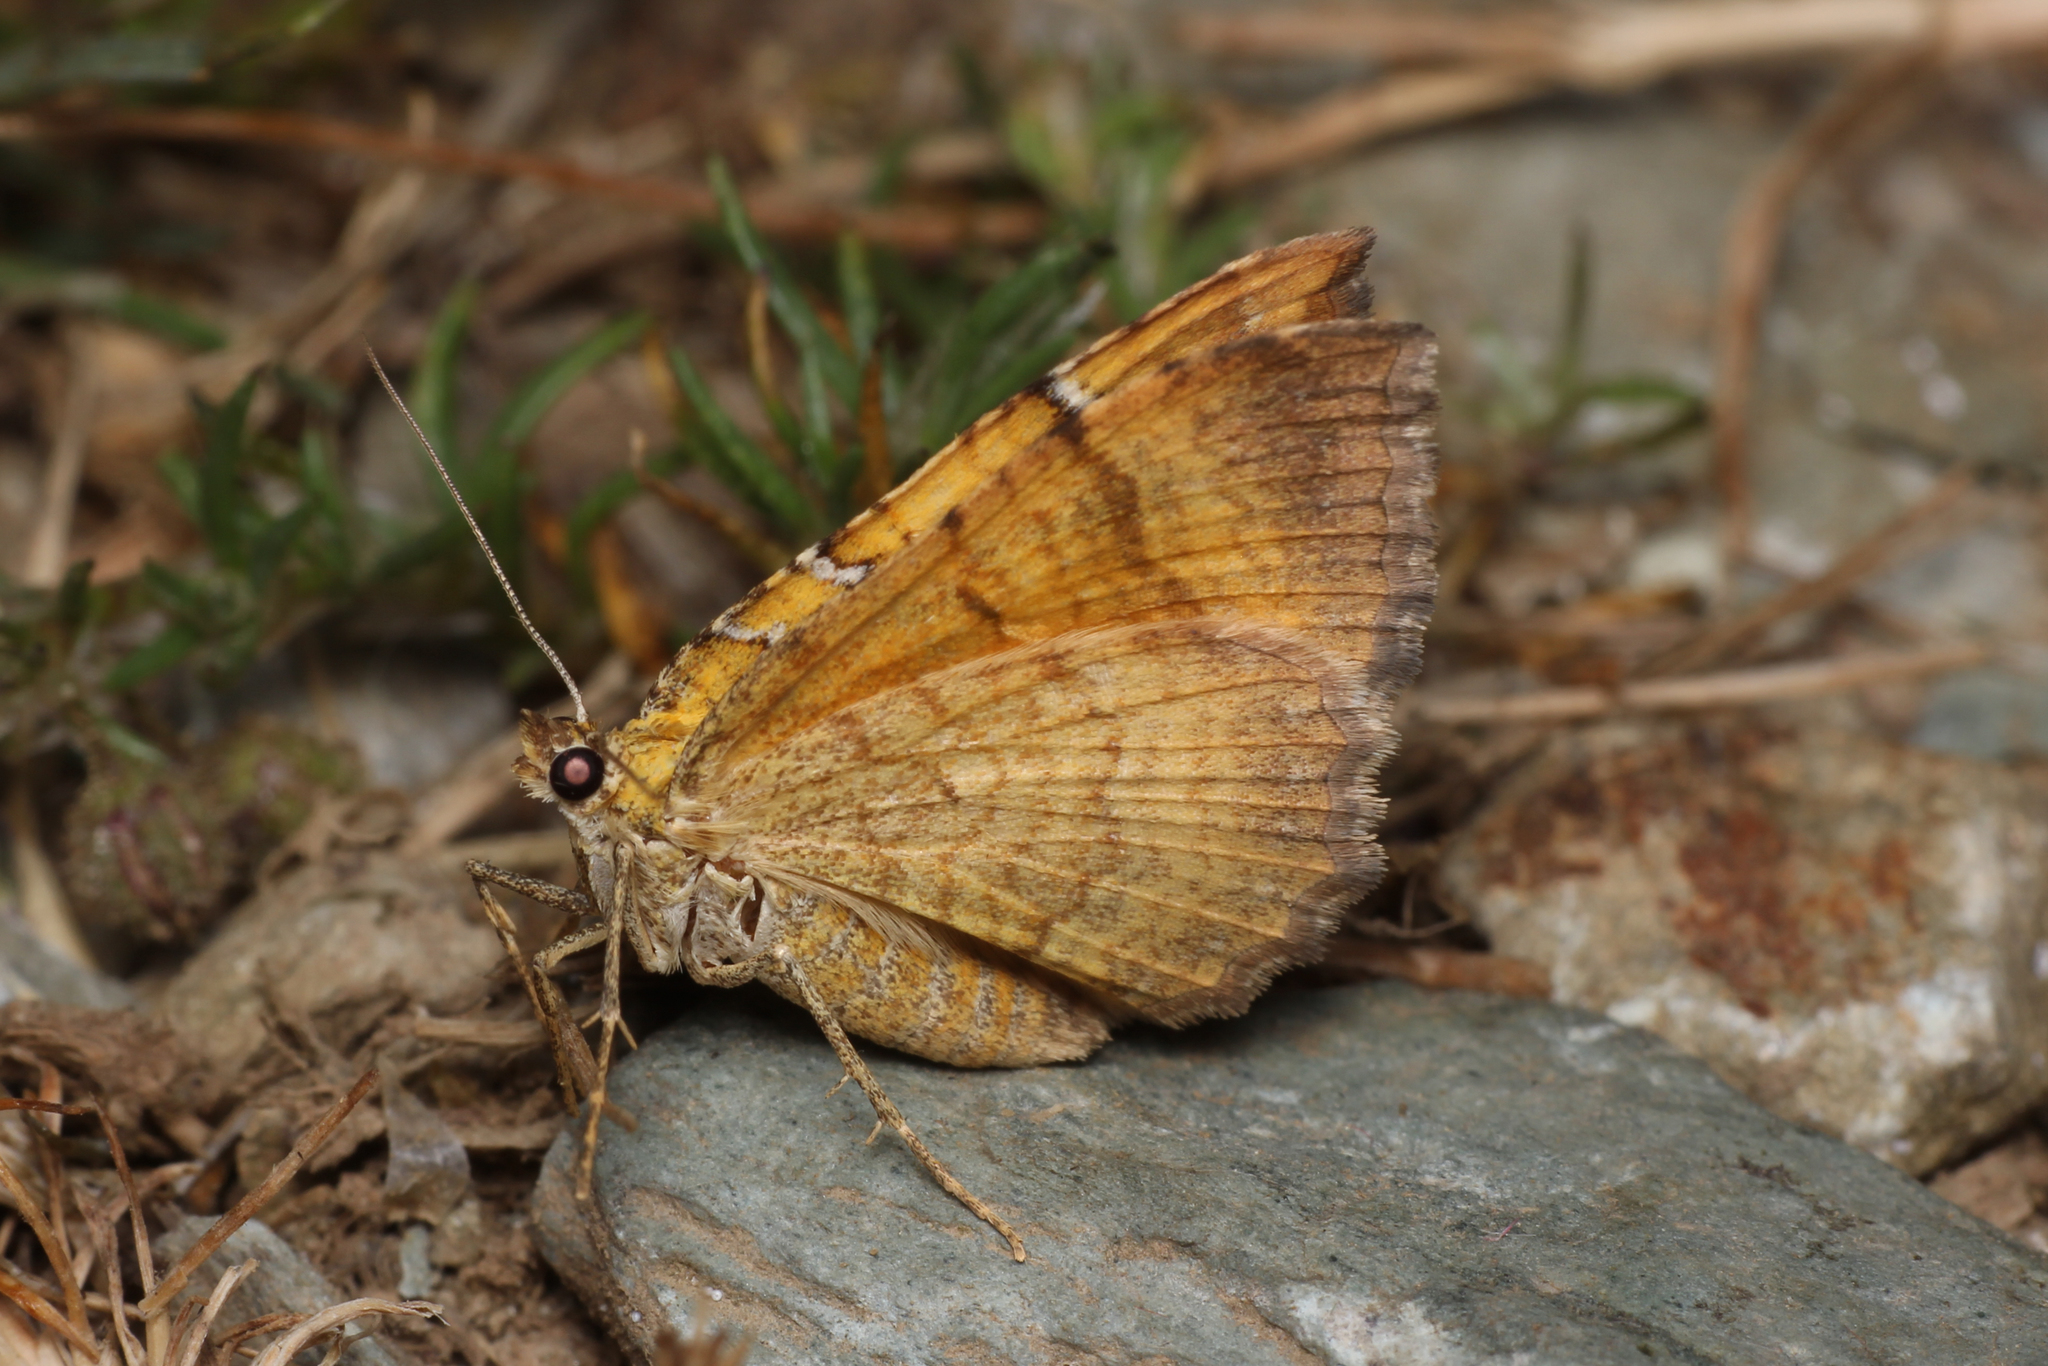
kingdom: Animalia
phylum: Arthropoda
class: Insecta
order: Lepidoptera
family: Geometridae
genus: Camptogramma
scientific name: Camptogramma bilineata
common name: Yellow shell
